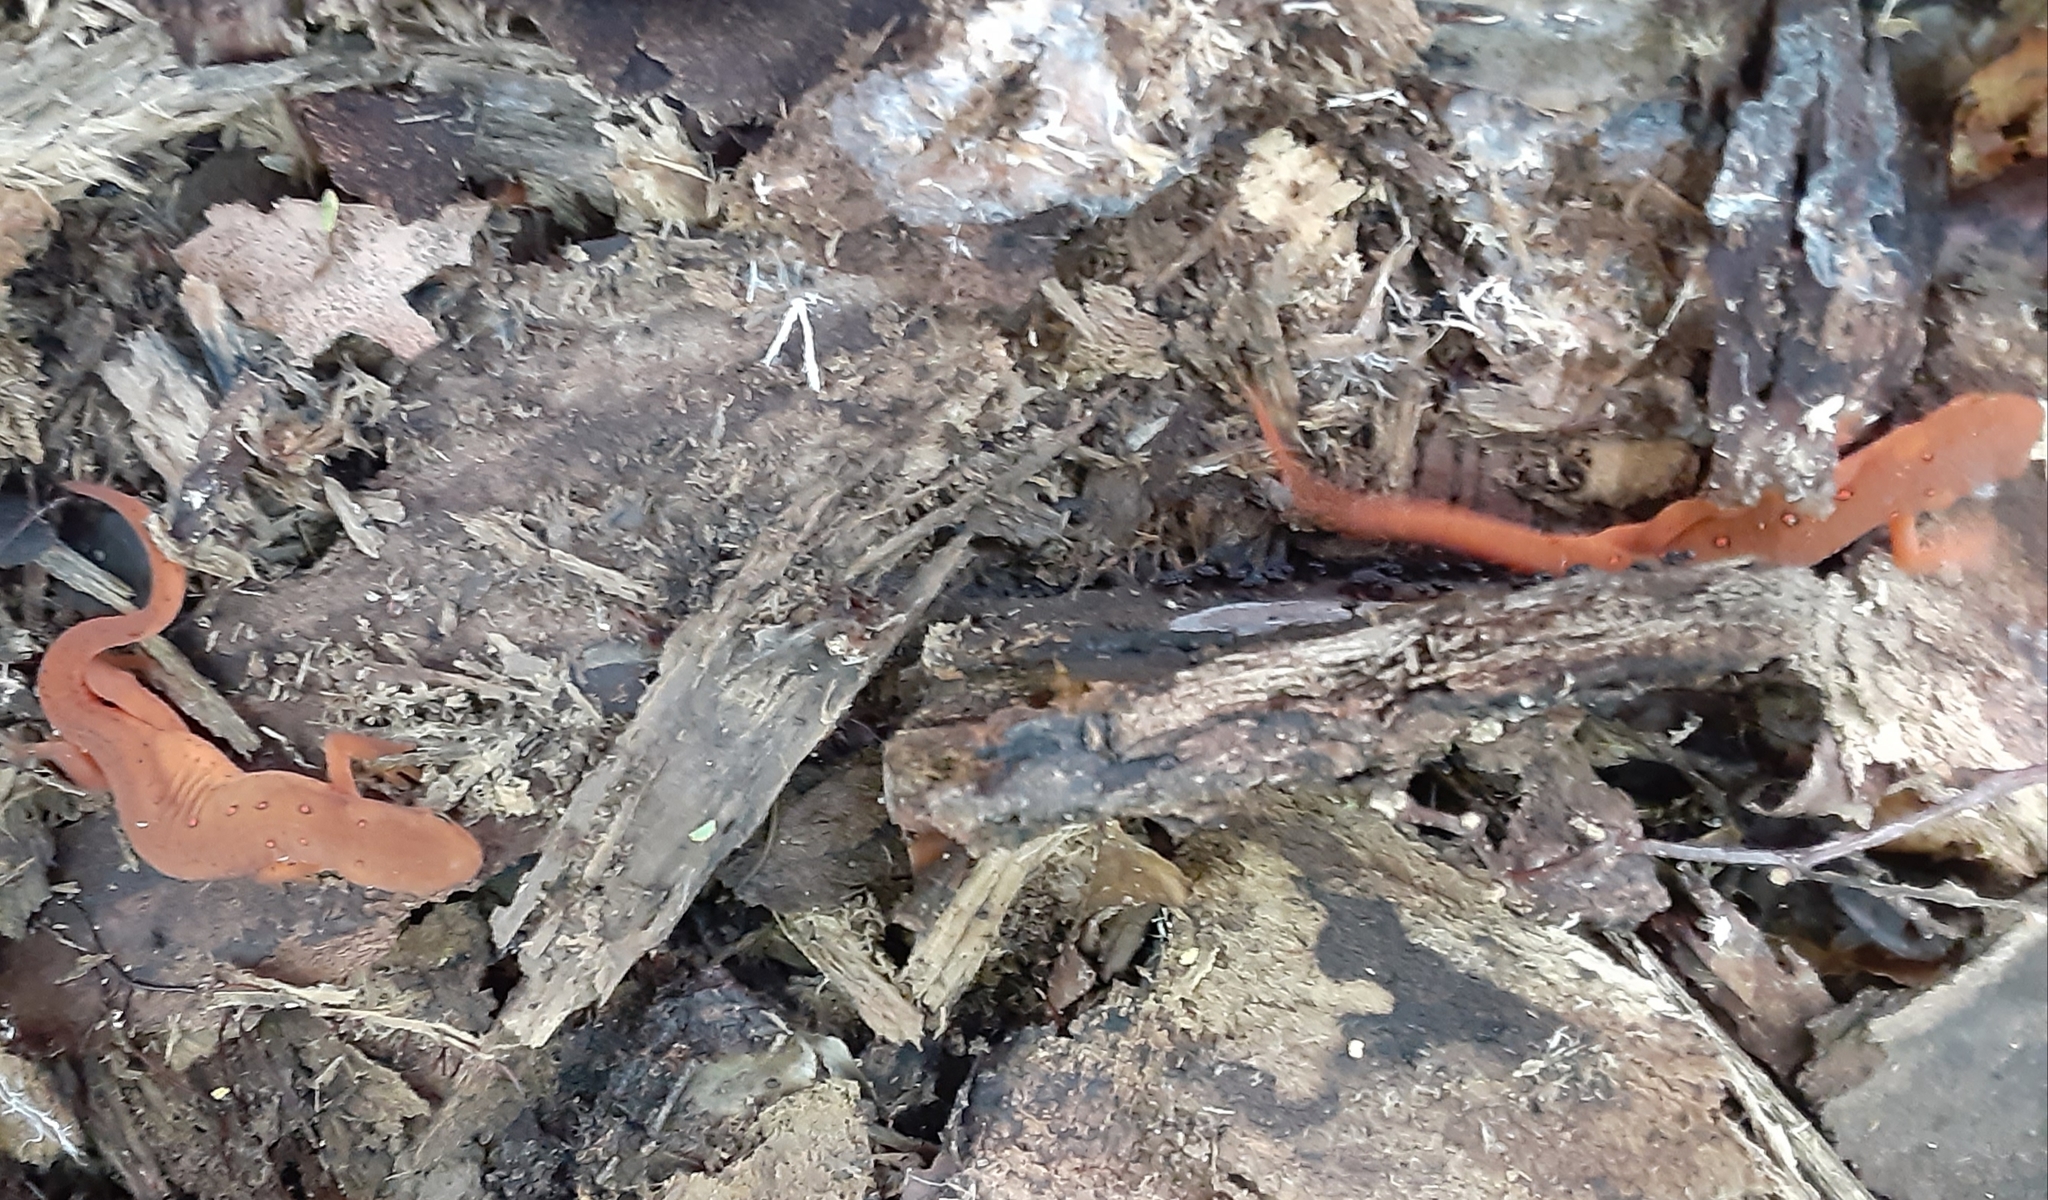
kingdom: Animalia
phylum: Chordata
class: Amphibia
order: Caudata
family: Salamandridae
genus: Notophthalmus
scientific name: Notophthalmus viridescens
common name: Eastern newt
